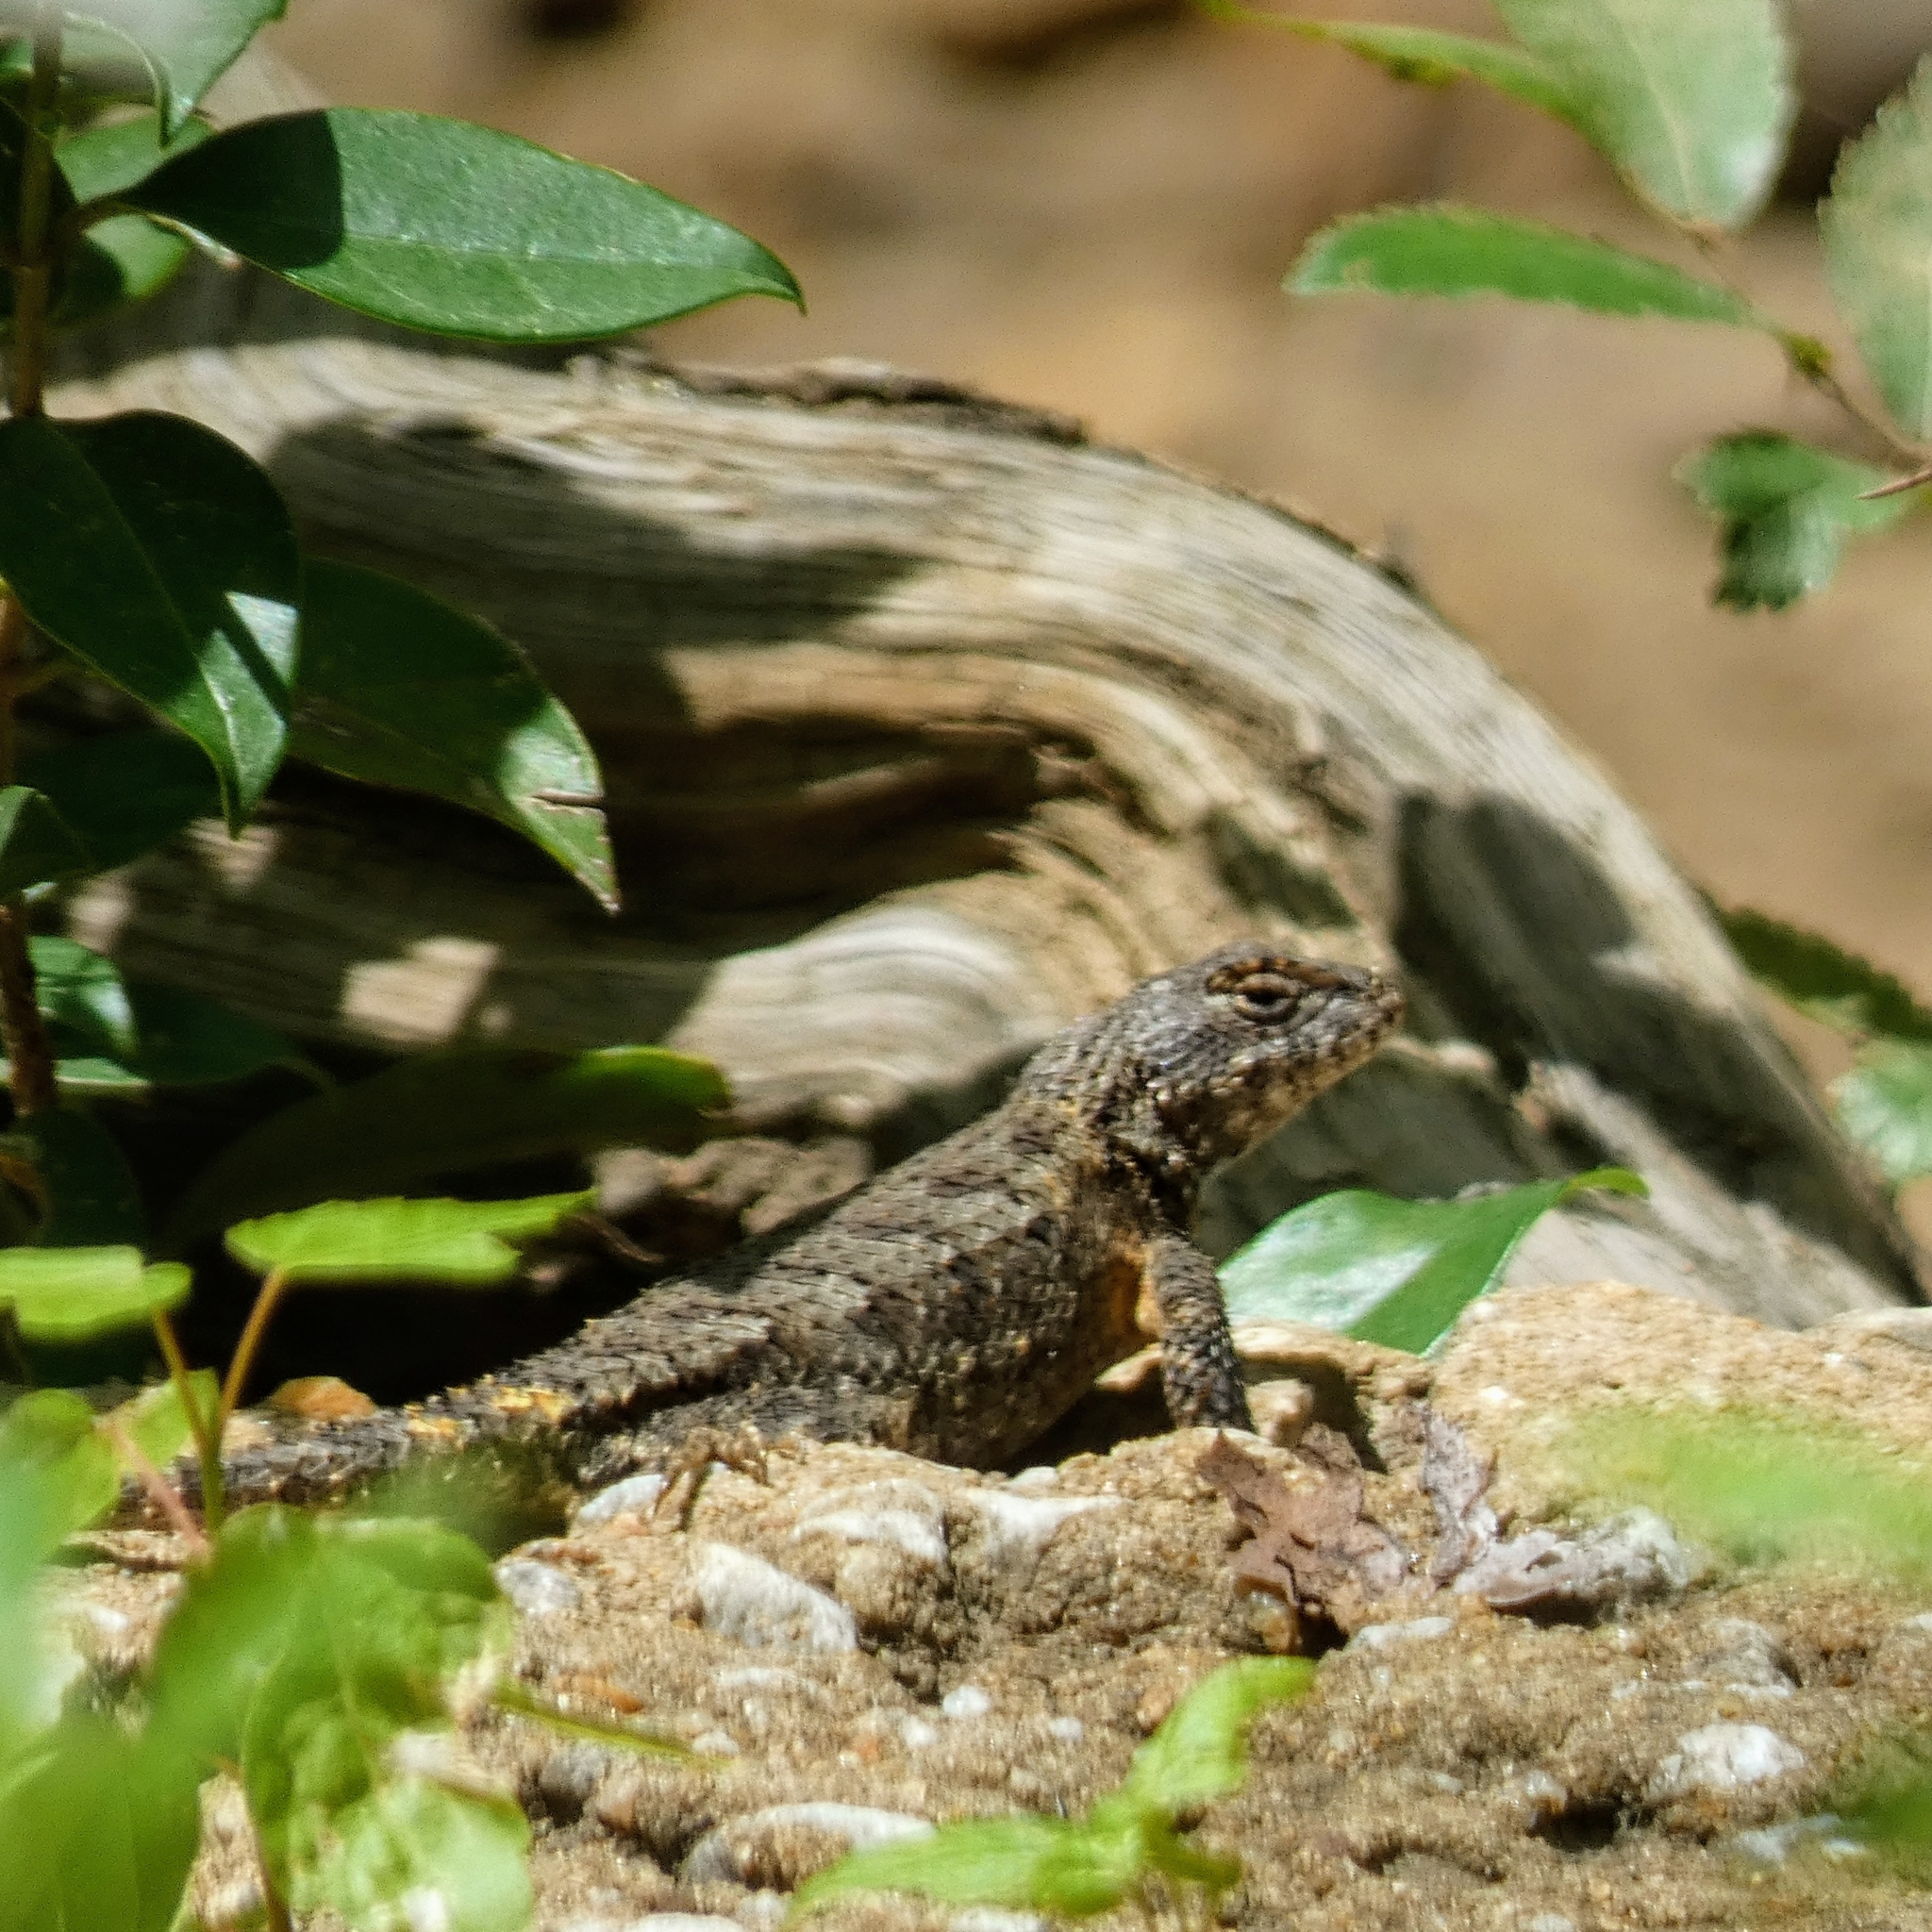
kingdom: Animalia
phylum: Chordata
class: Squamata
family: Phrynosomatidae
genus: Sceloporus
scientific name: Sceloporus undulatus
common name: Eastern fence lizard
